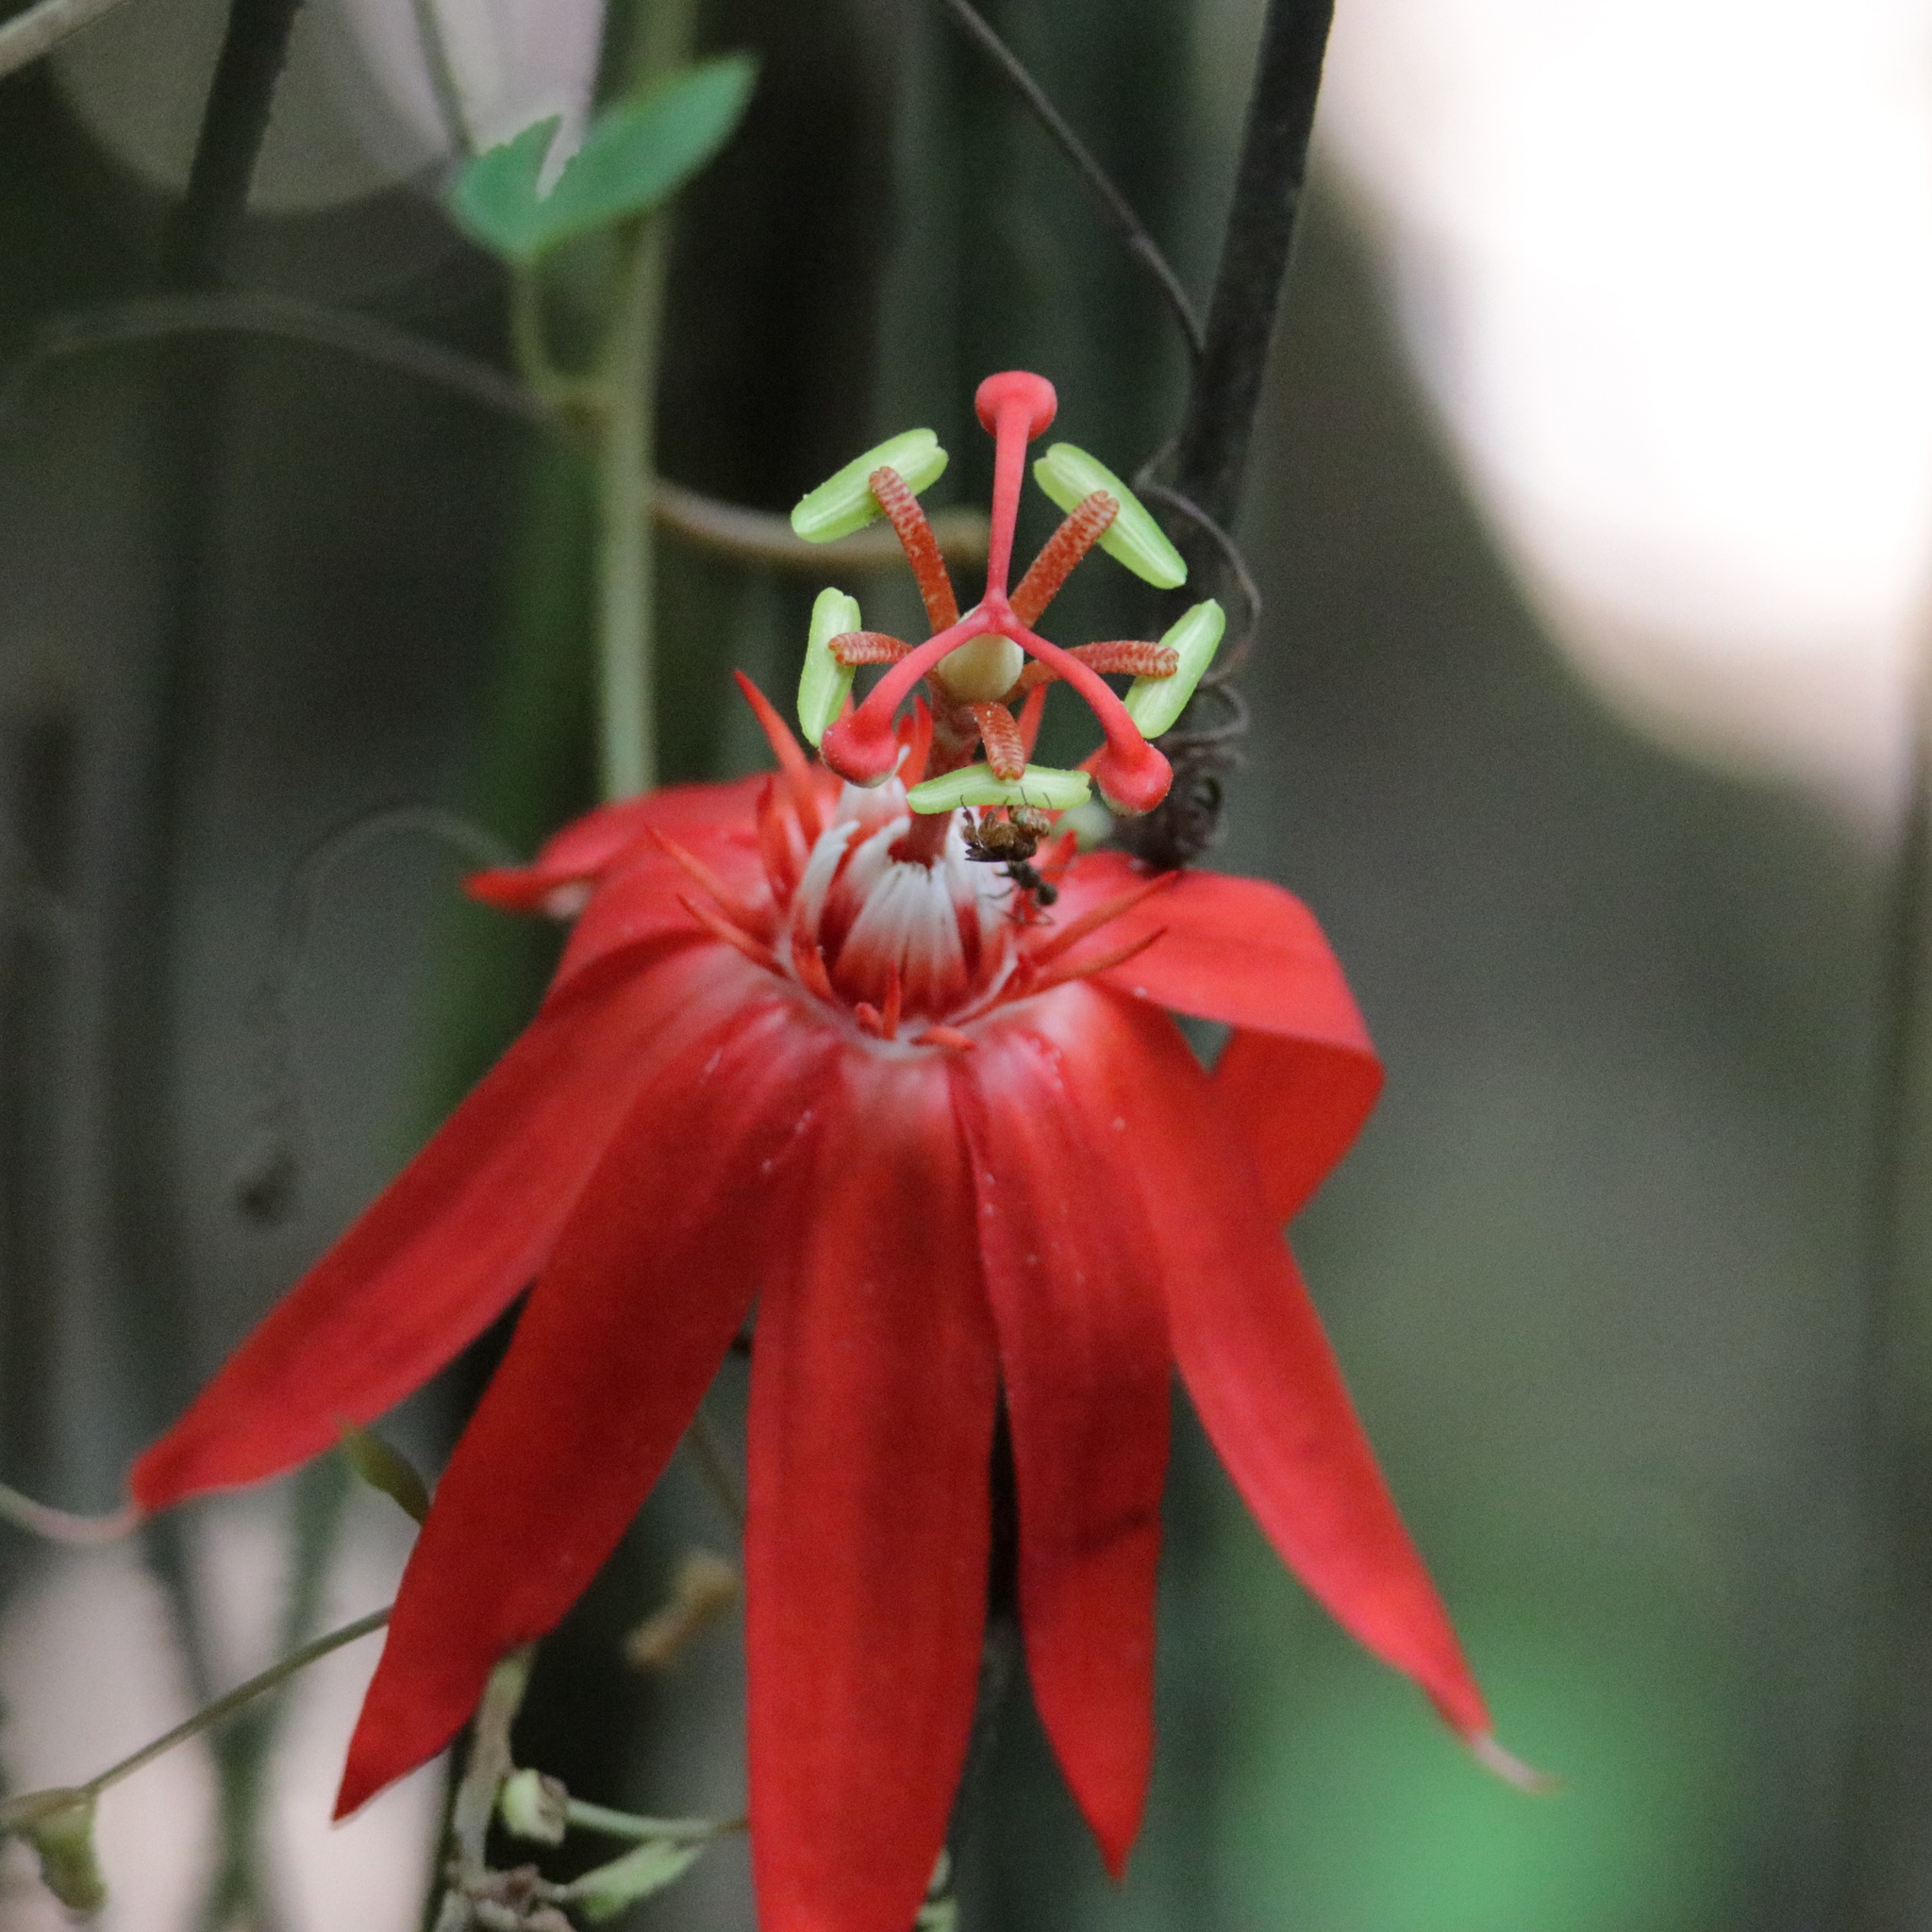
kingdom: Plantae
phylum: Tracheophyta
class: Magnoliopsida
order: Malpighiales
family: Passifloraceae
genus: Passiflora
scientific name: Passiflora vitifolia
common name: Perfumed passionflower
